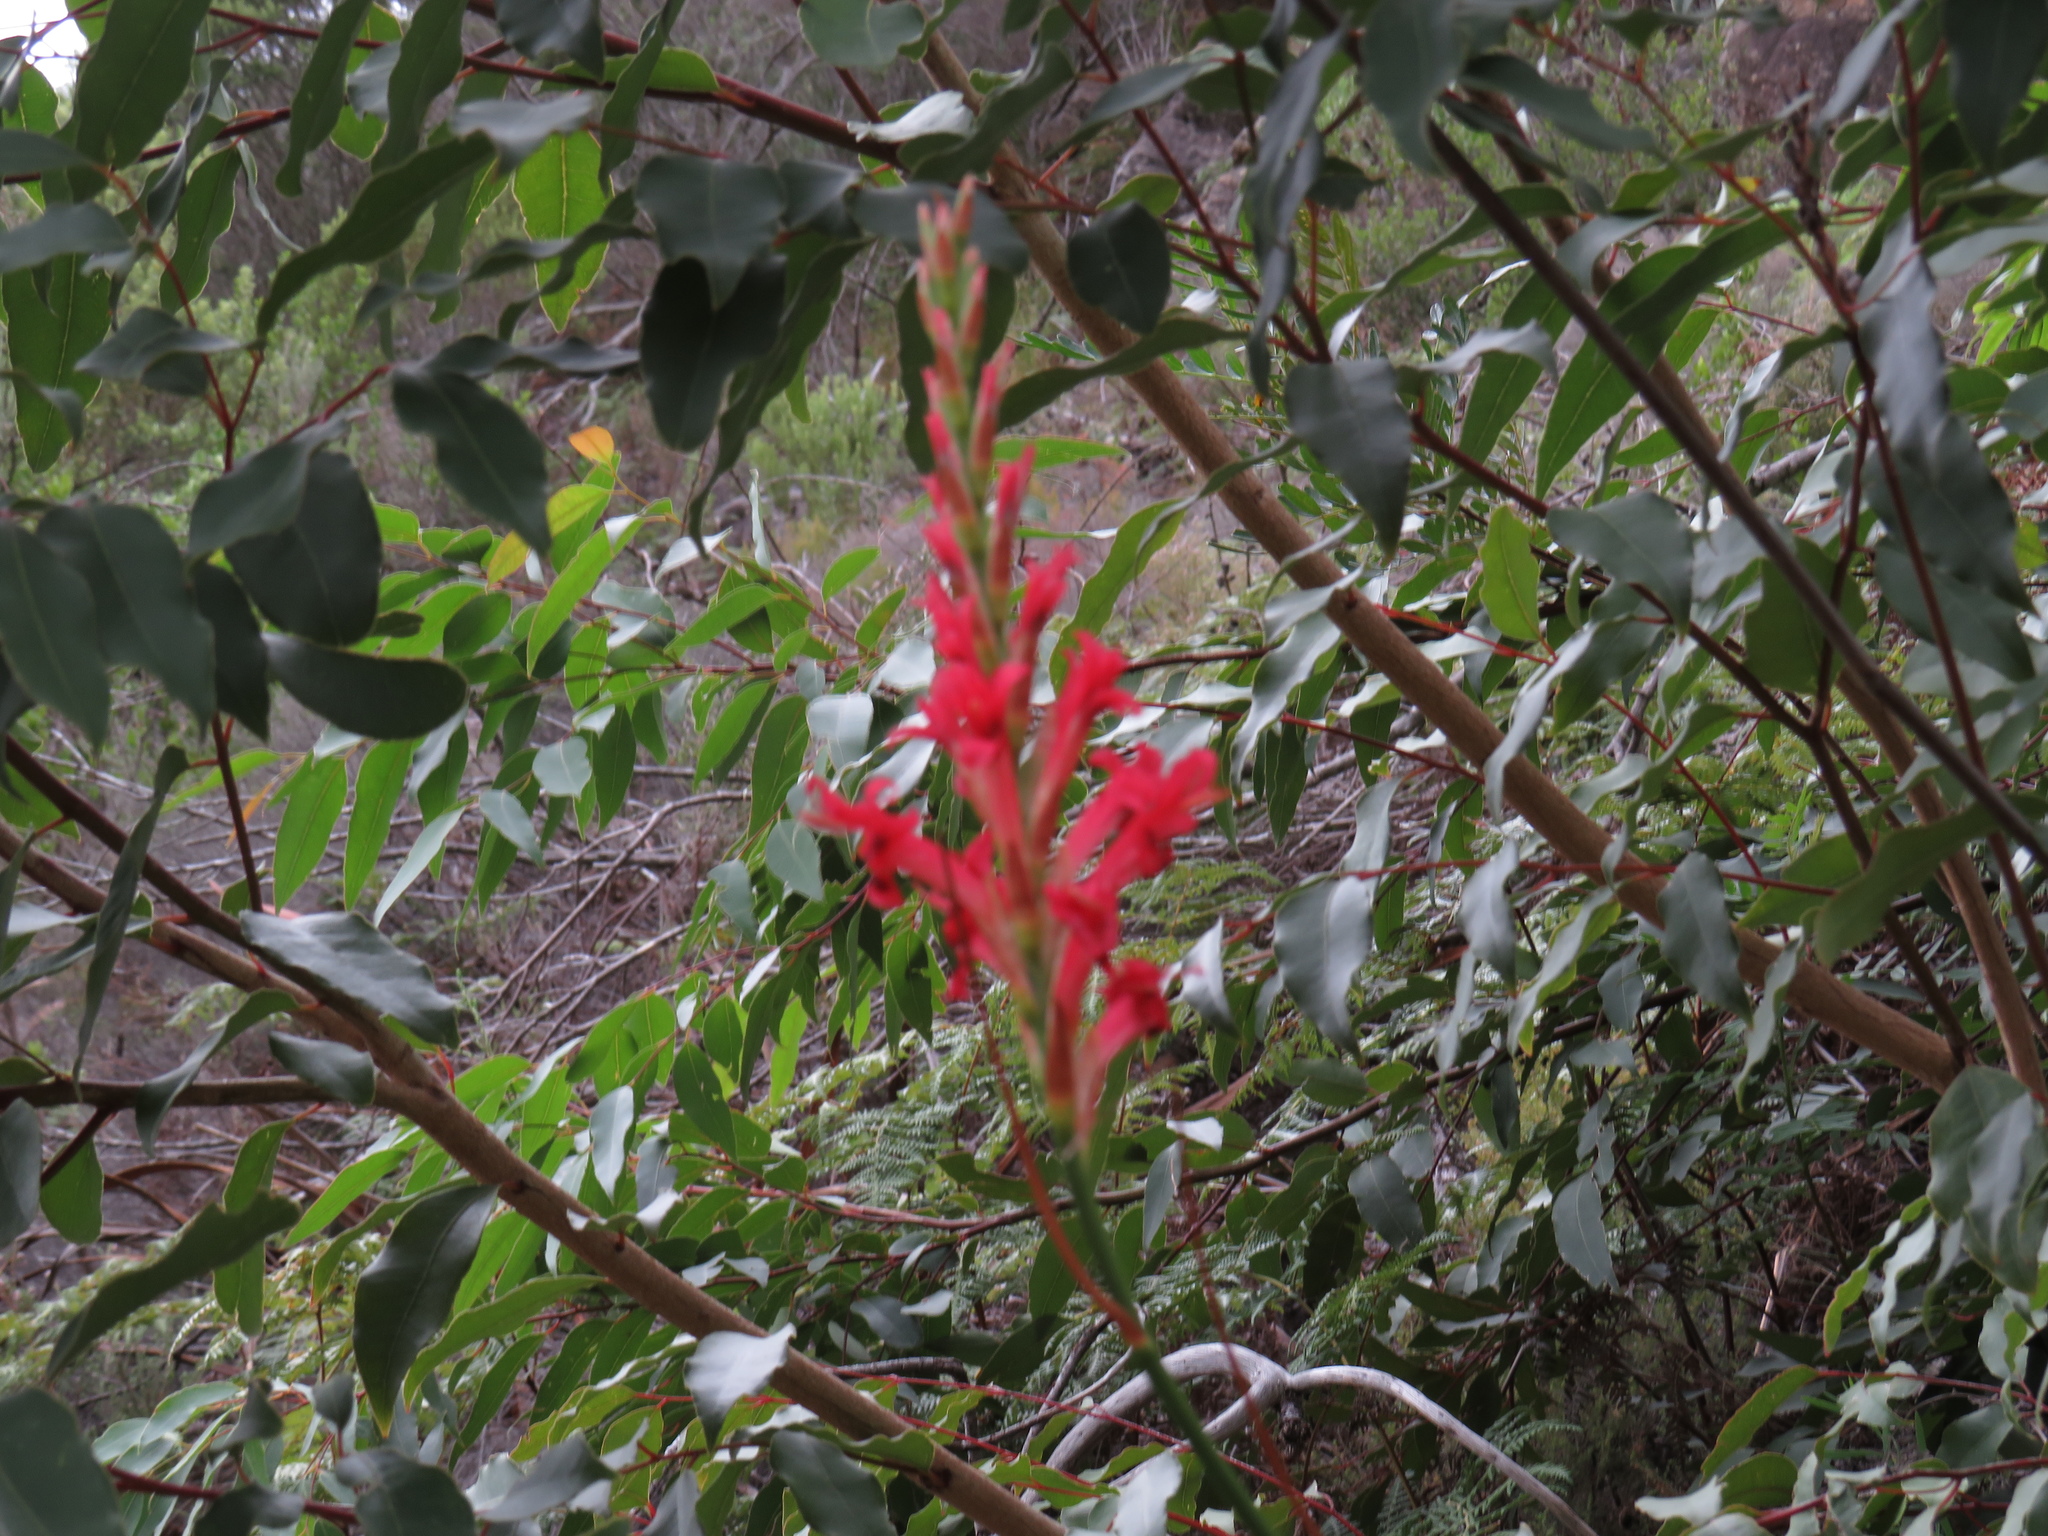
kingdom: Plantae
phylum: Tracheophyta
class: Liliopsida
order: Asparagales
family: Iridaceae
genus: Tritoniopsis
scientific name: Tritoniopsis triticea
